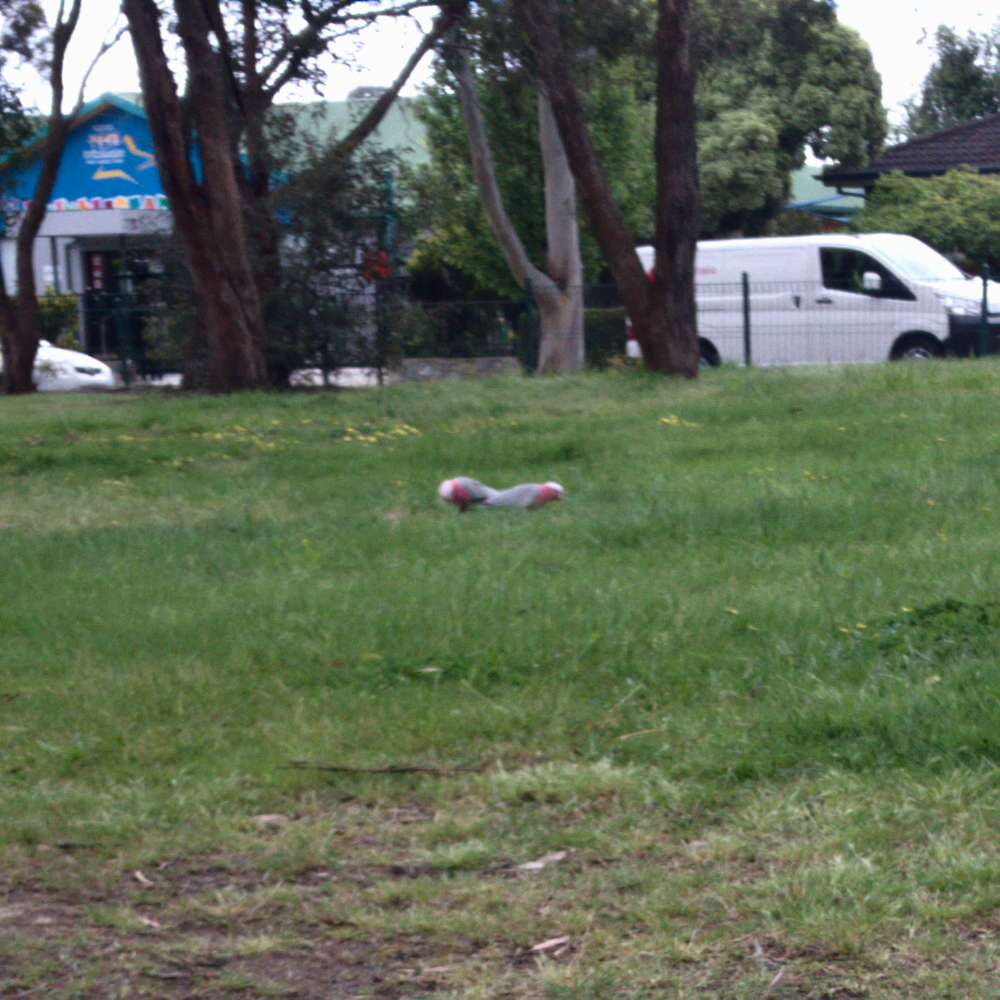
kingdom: Animalia
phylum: Chordata
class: Aves
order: Psittaciformes
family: Psittacidae
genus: Eolophus
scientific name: Eolophus roseicapilla
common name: Galah
